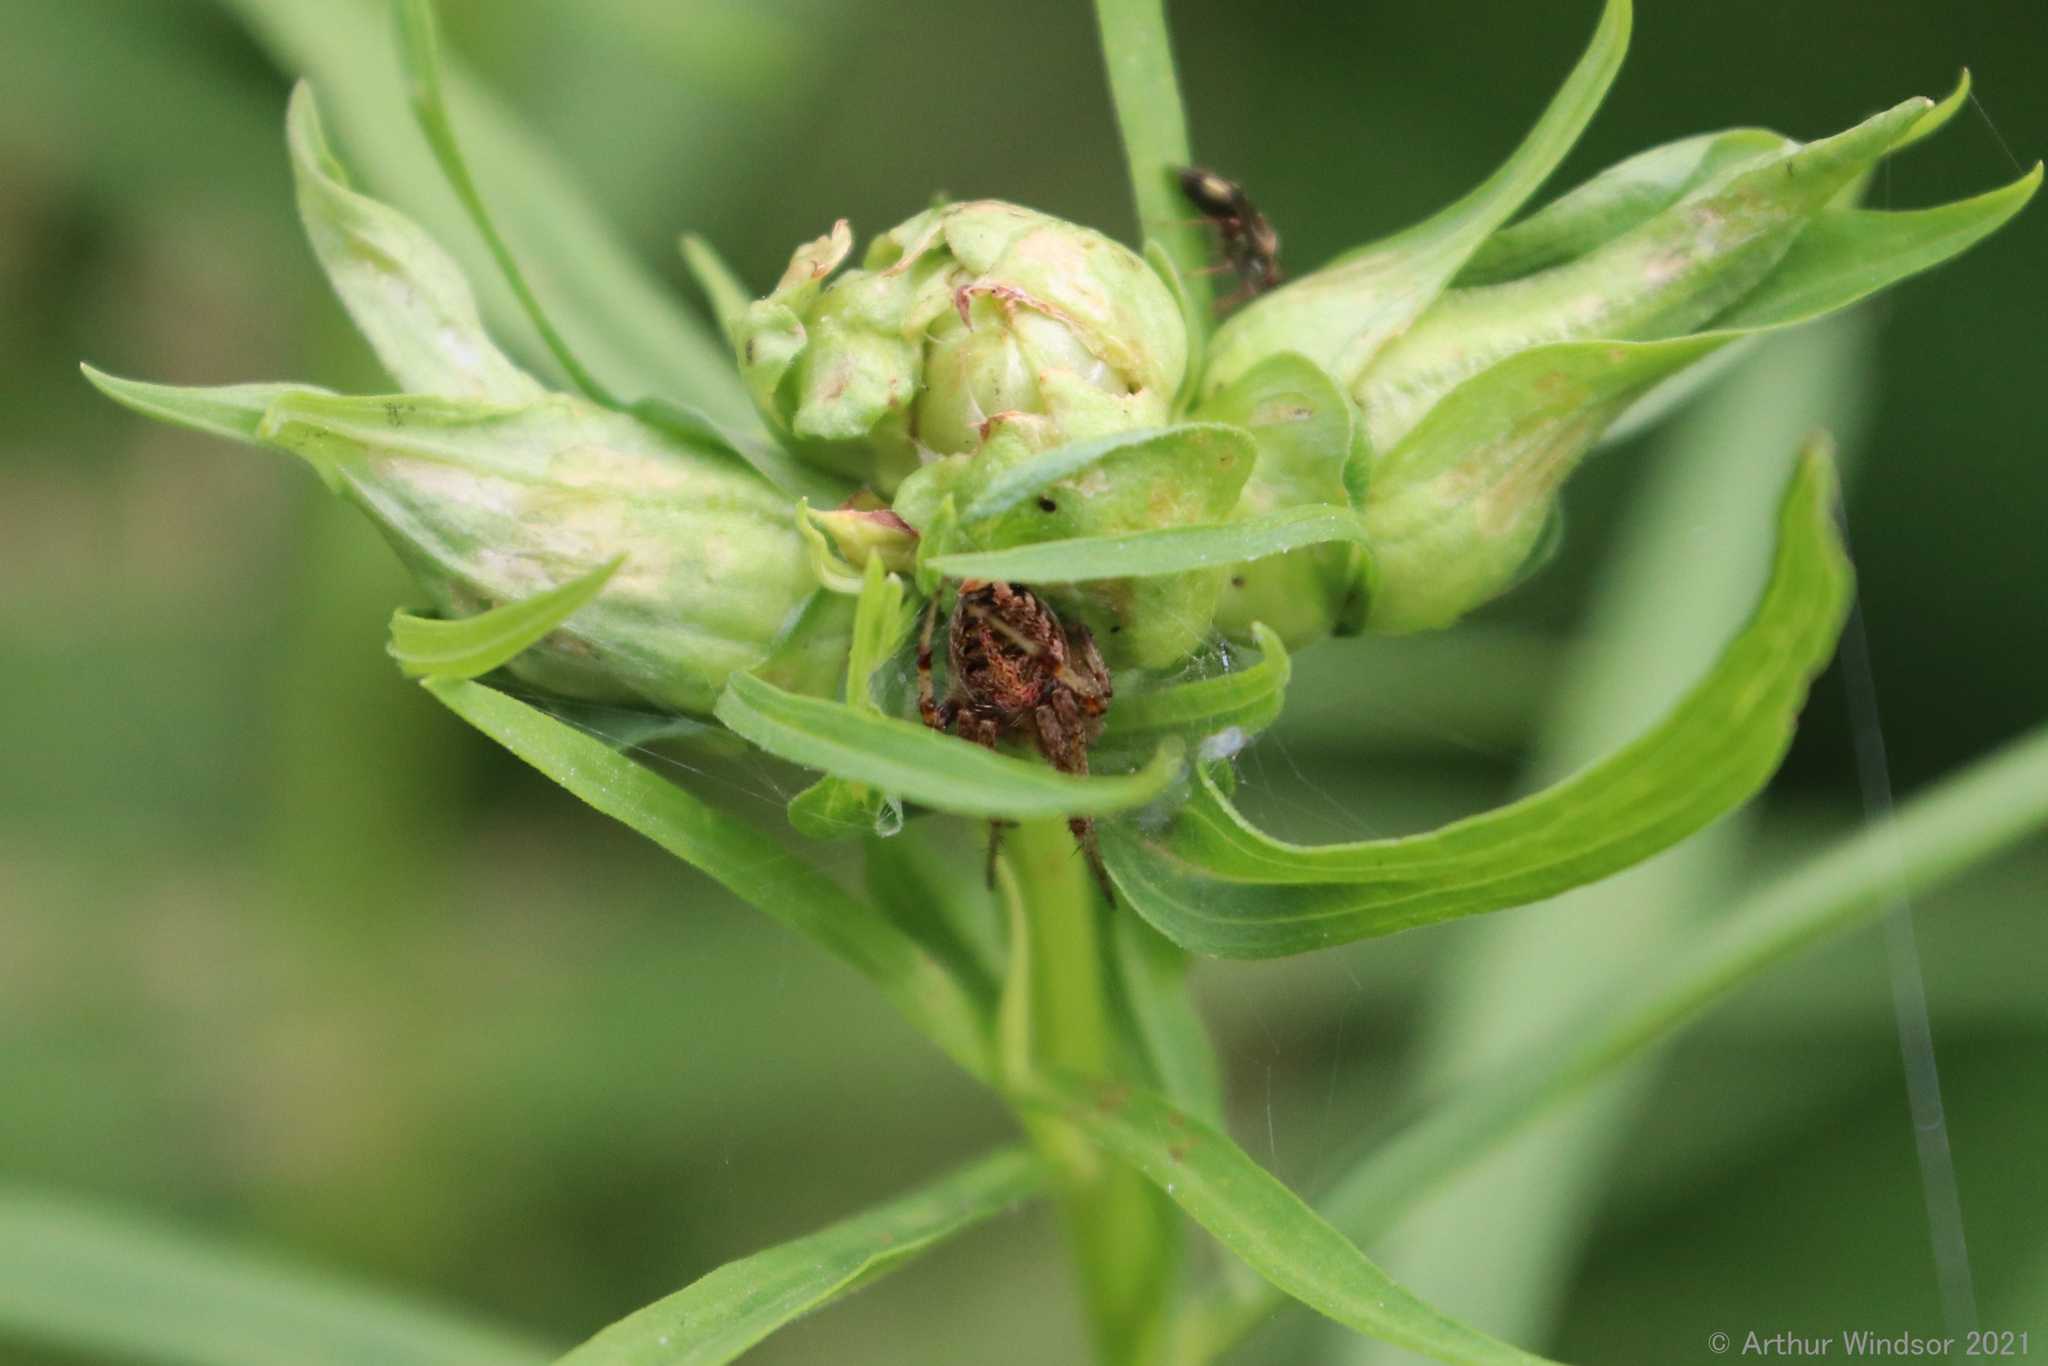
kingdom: Animalia
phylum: Arthropoda
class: Arachnida
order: Araneae
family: Araneidae
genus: Neoscona
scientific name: Neoscona arabesca
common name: Orb weavers
